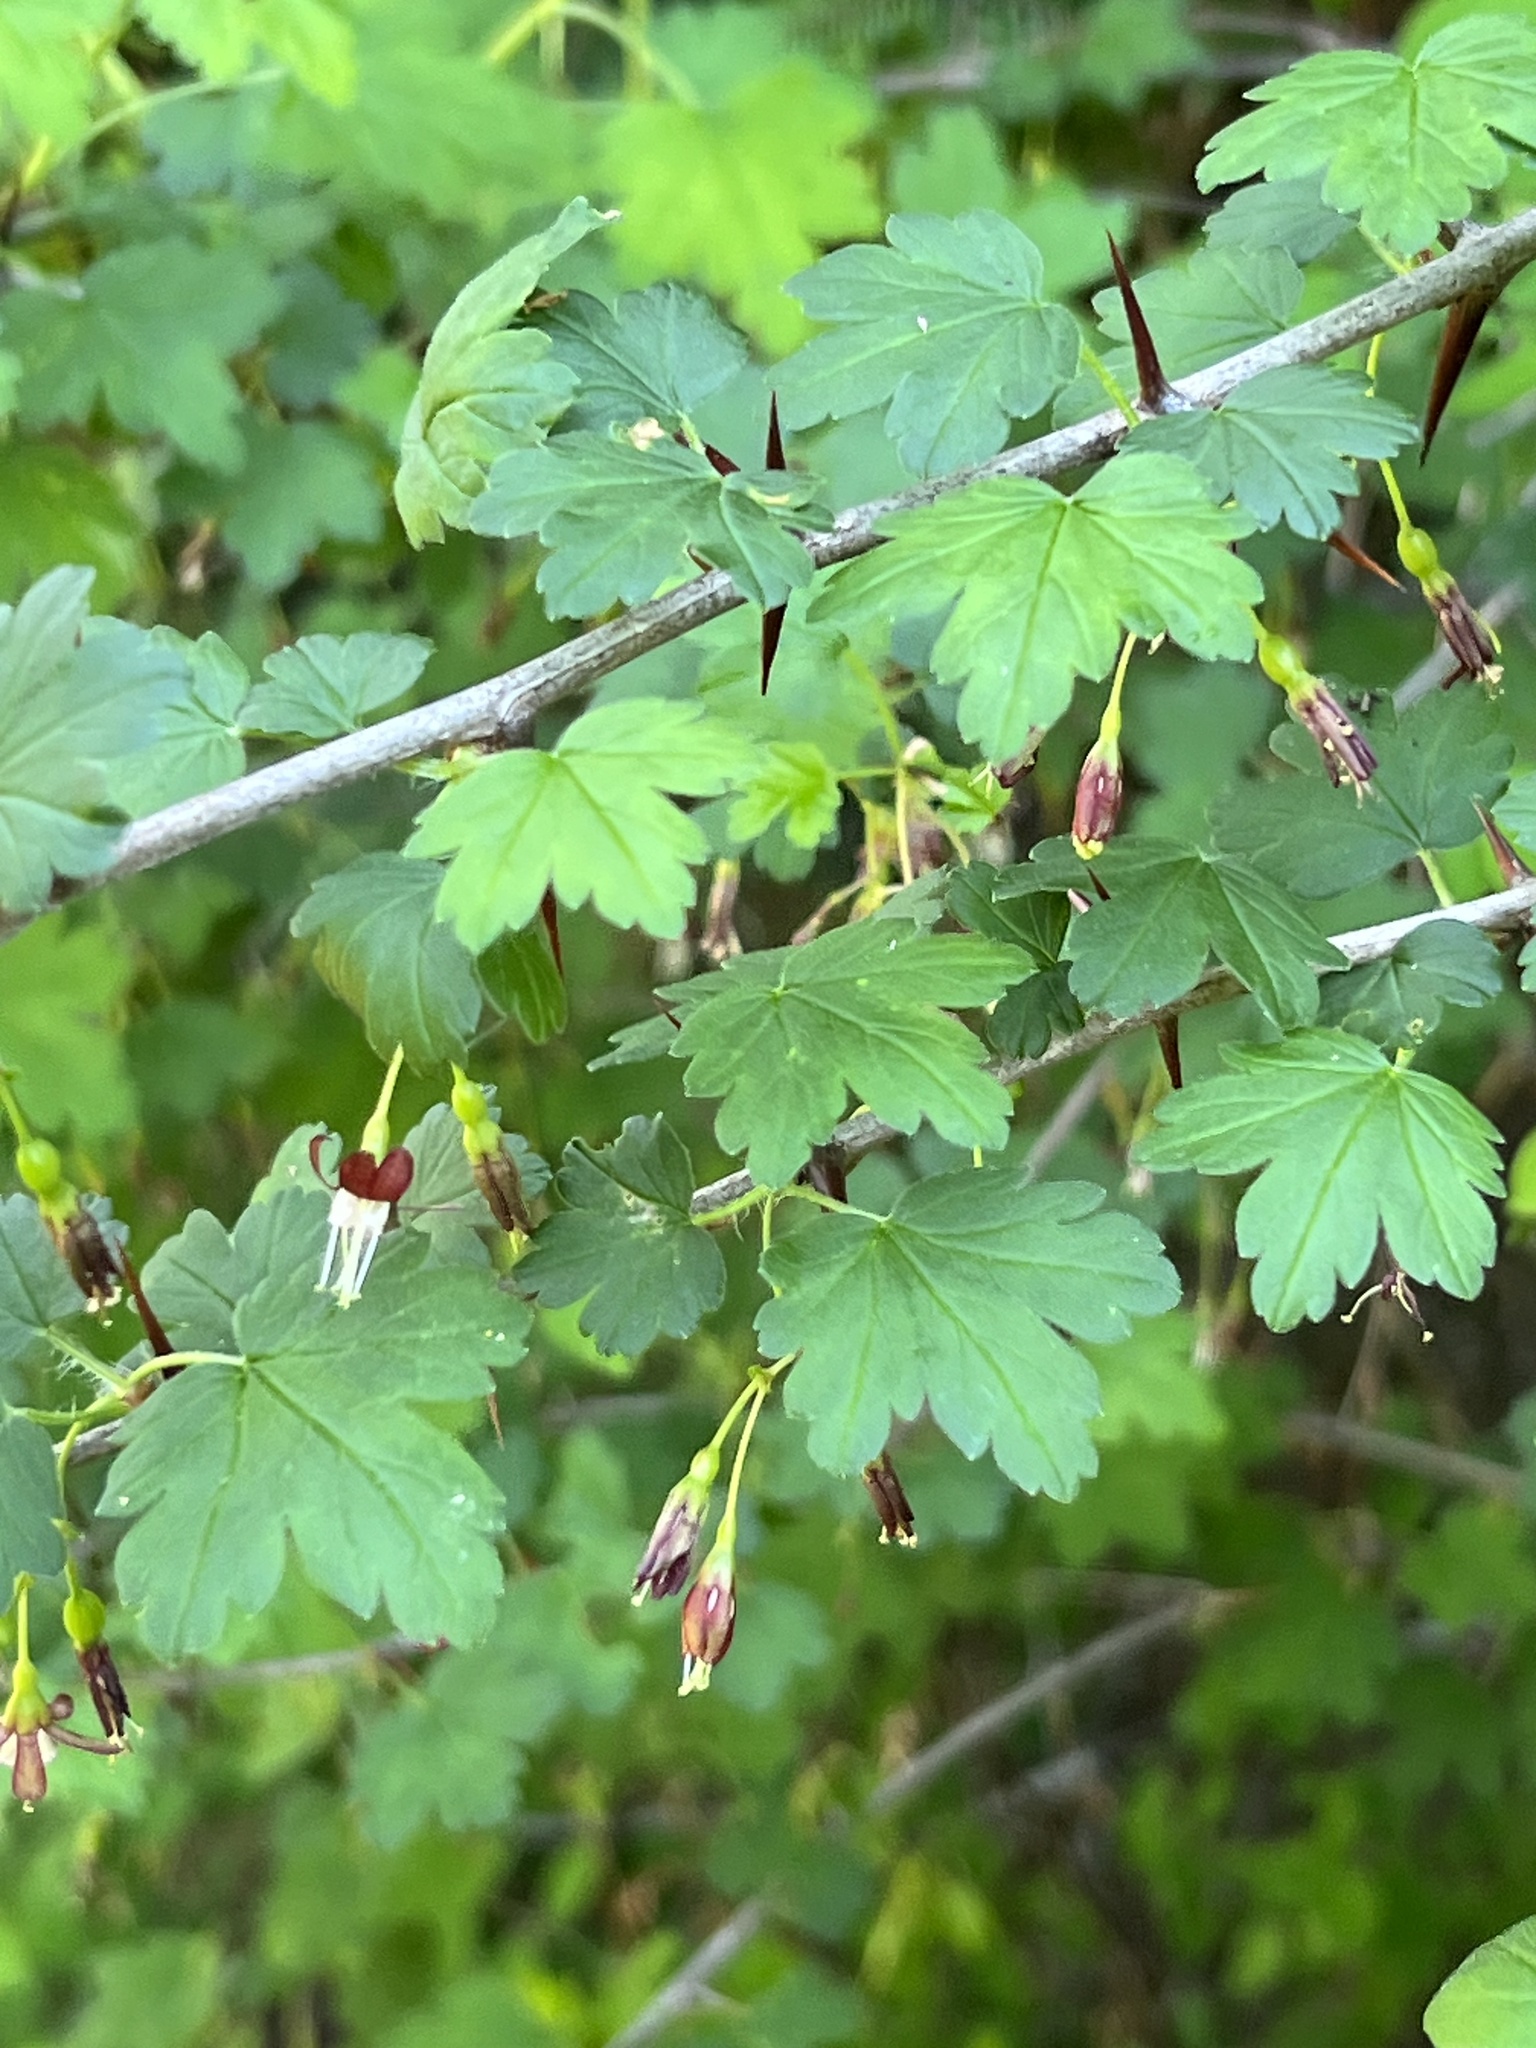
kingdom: Plantae
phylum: Tracheophyta
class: Magnoliopsida
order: Saxifragales
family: Grossulariaceae
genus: Ribes
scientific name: Ribes divaricatum
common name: Wild black gooseberry
